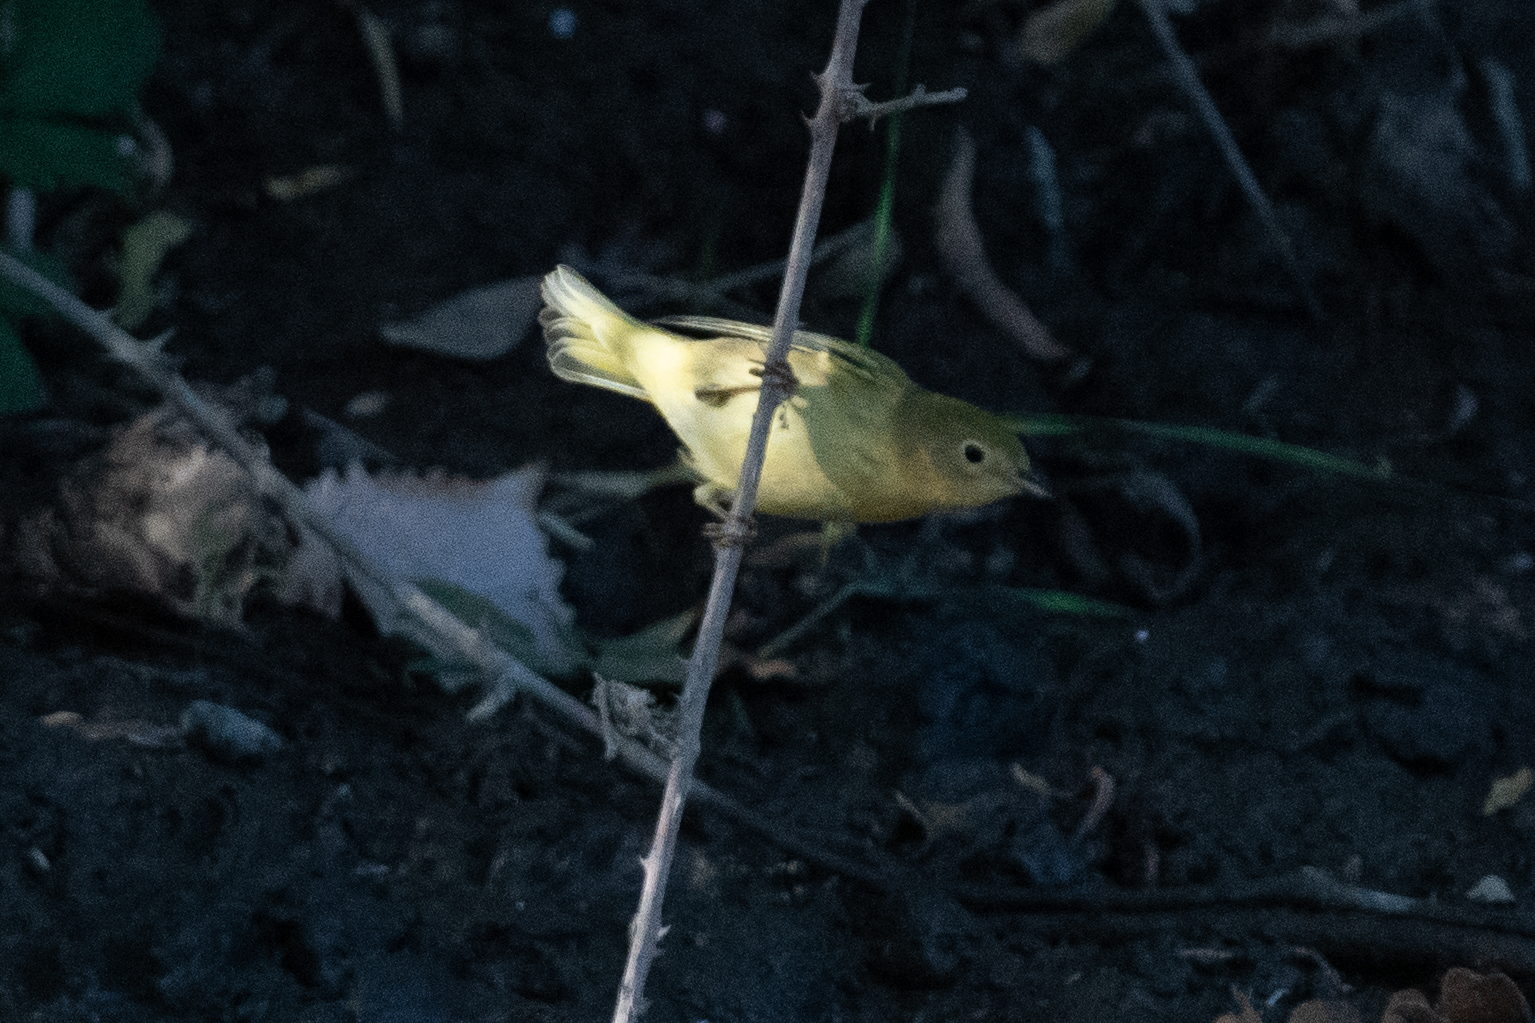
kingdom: Animalia
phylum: Chordata
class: Aves
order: Passeriformes
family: Parulidae
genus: Setophaga
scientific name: Setophaga petechia
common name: Yellow warbler
